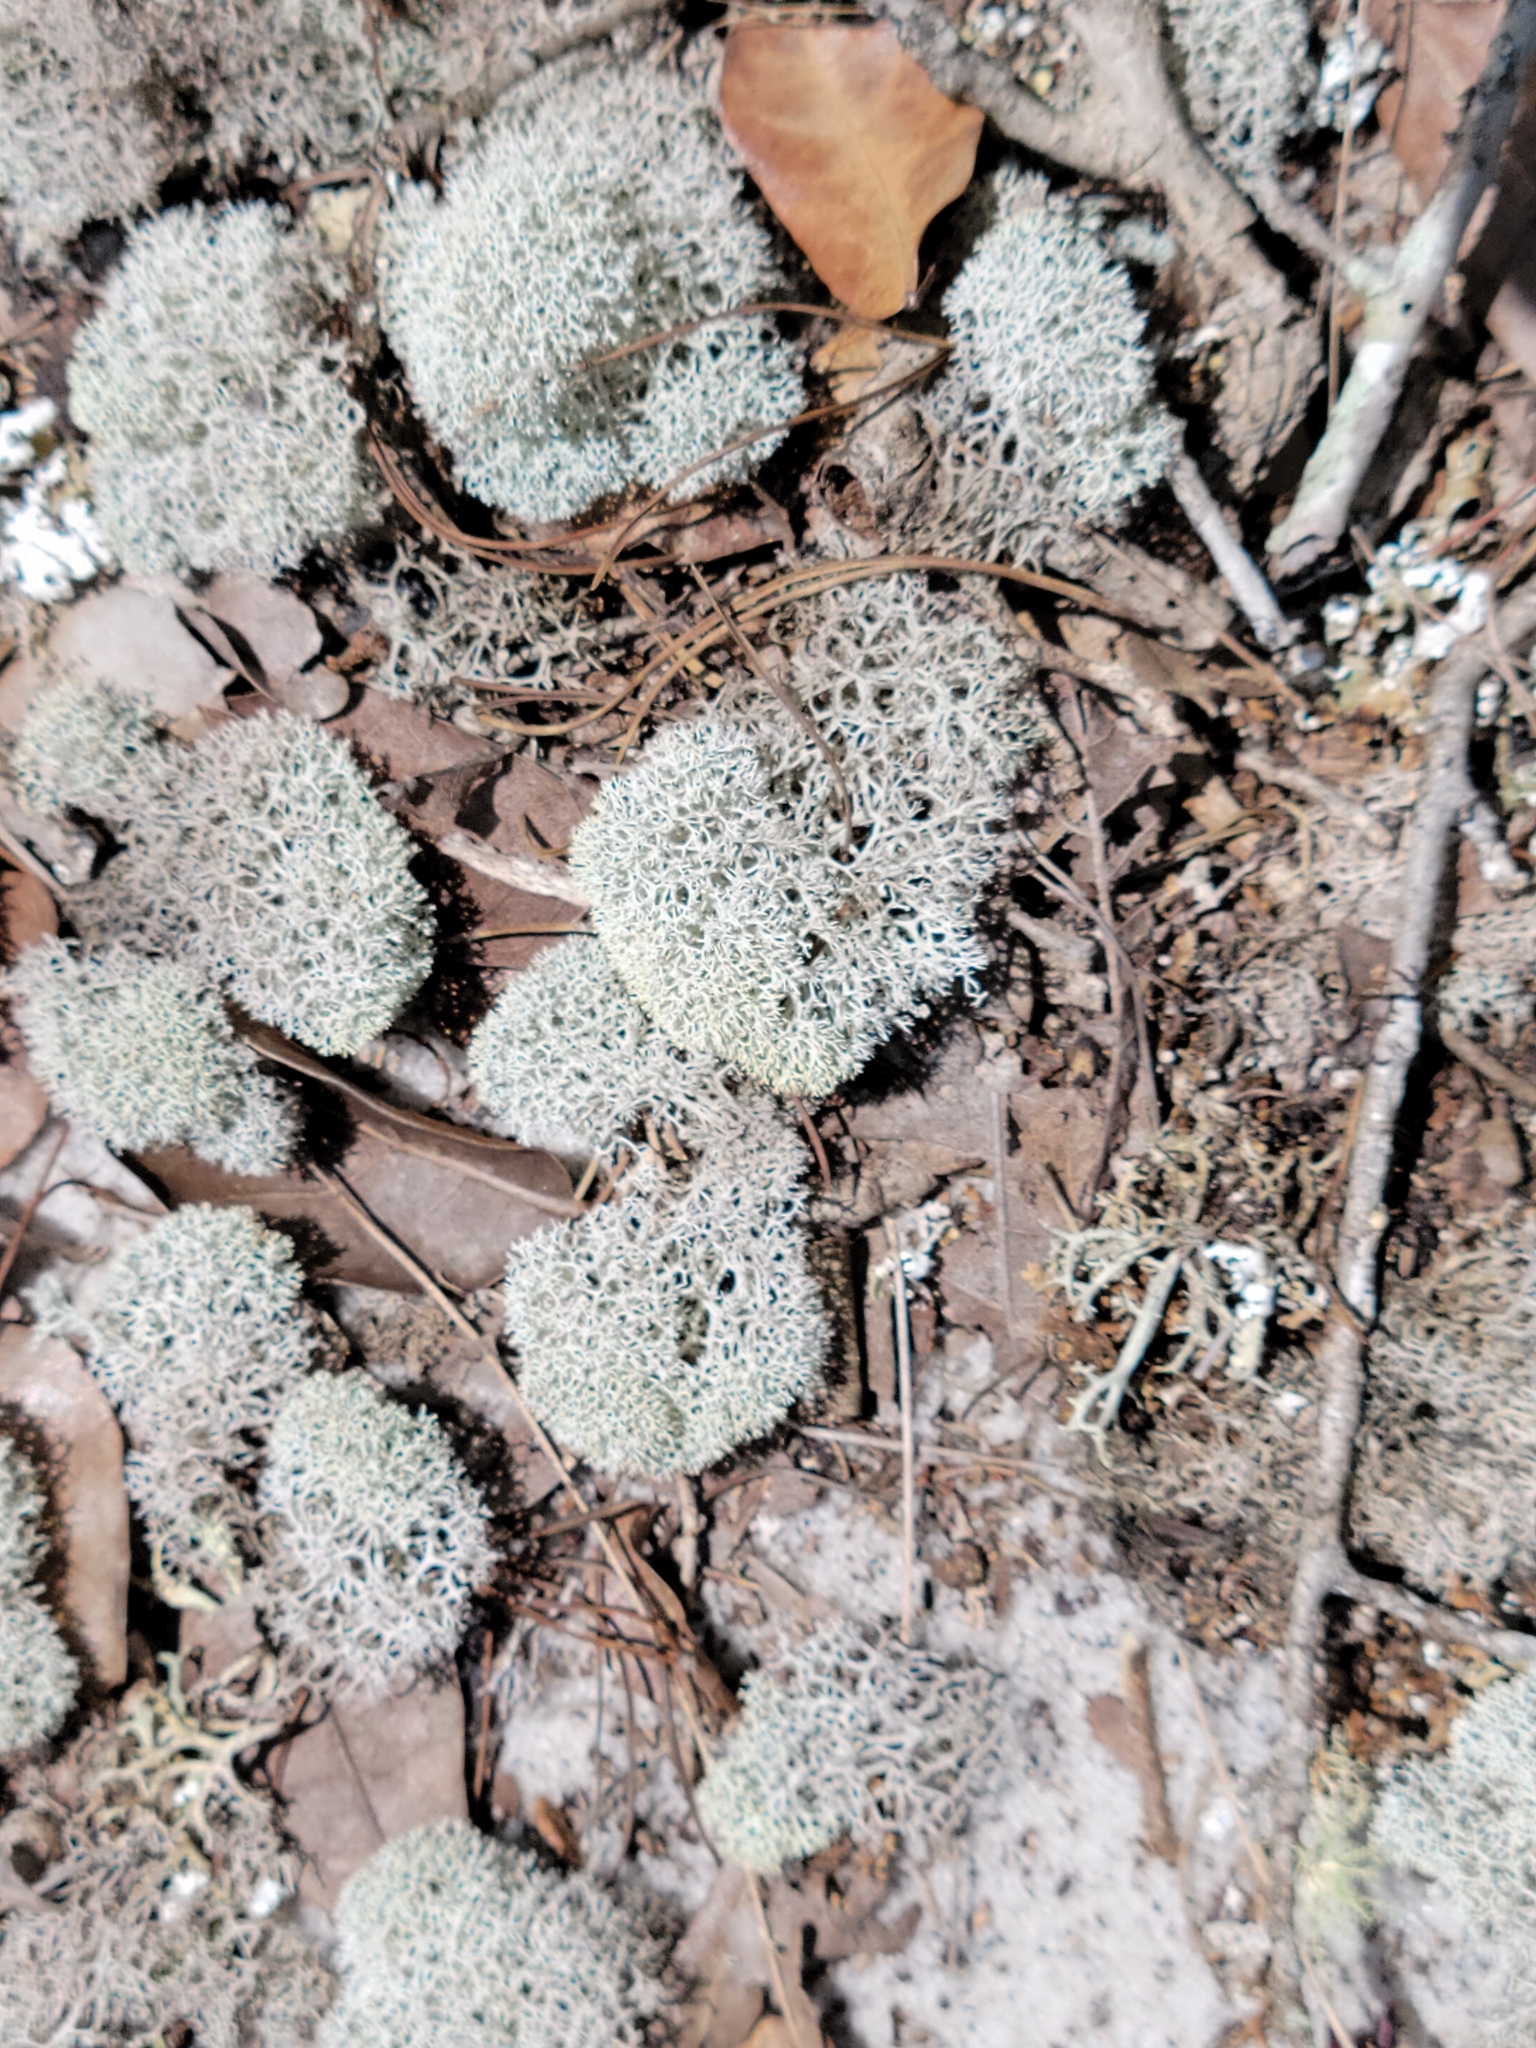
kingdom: Fungi
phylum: Ascomycota
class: Lecanoromycetes
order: Lecanorales
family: Cladoniaceae
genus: Cladonia
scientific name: Cladonia evansii
